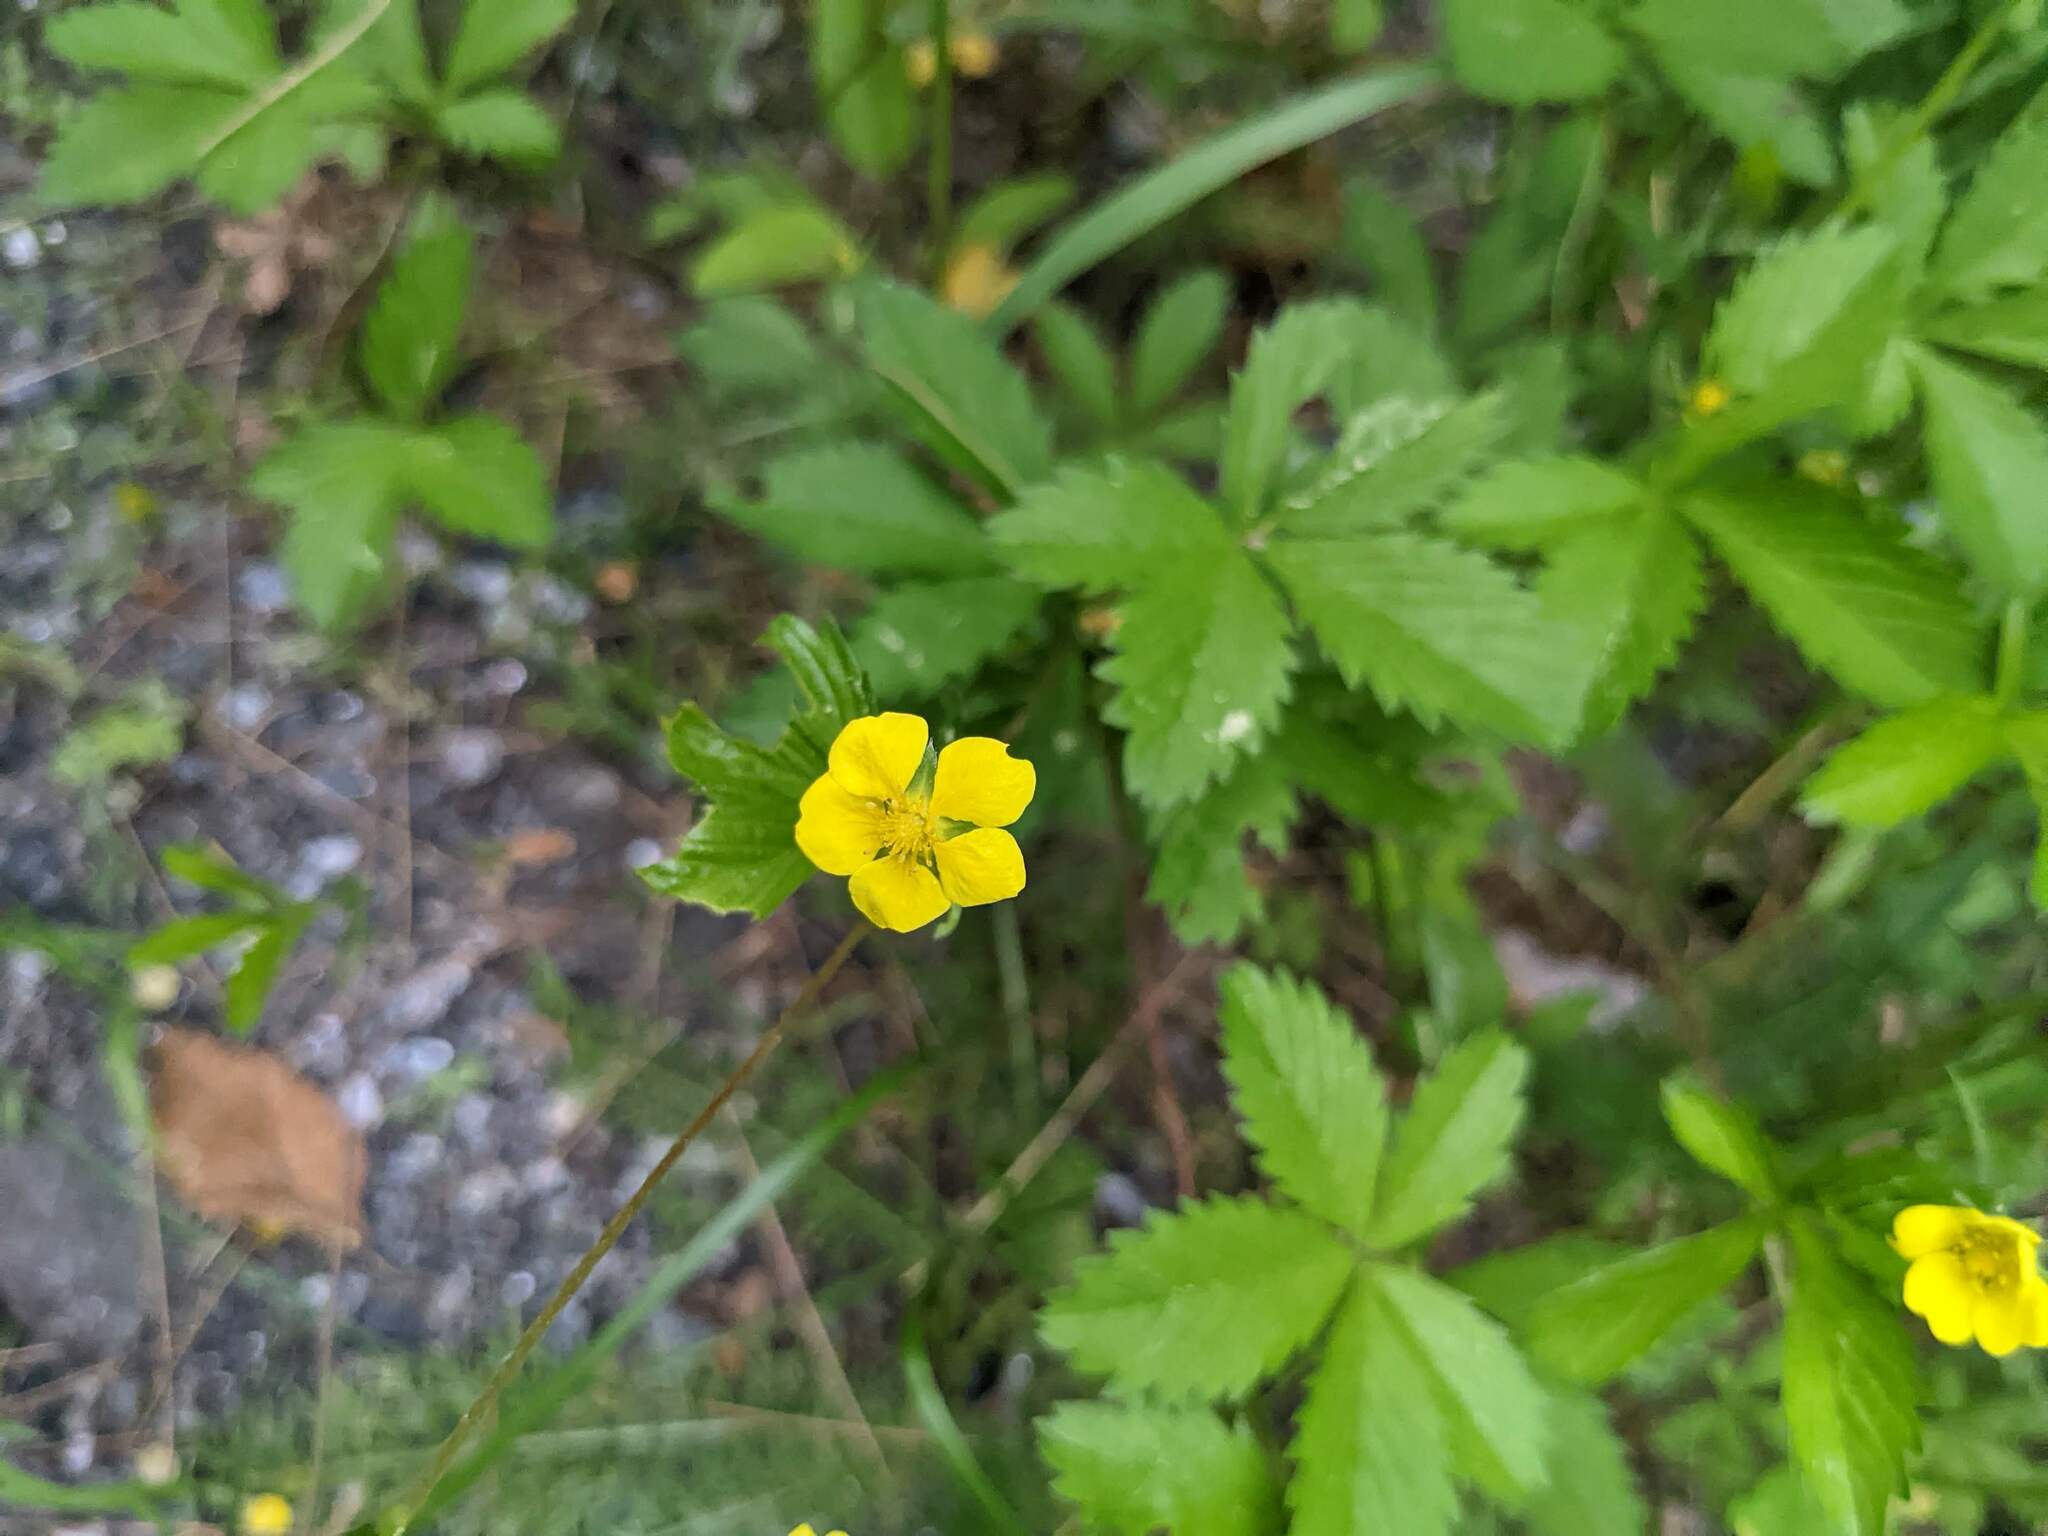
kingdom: Plantae
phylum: Tracheophyta
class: Magnoliopsida
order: Rosales
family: Rosaceae
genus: Potentilla
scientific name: Potentilla simplex
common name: Old field cinquefoil
